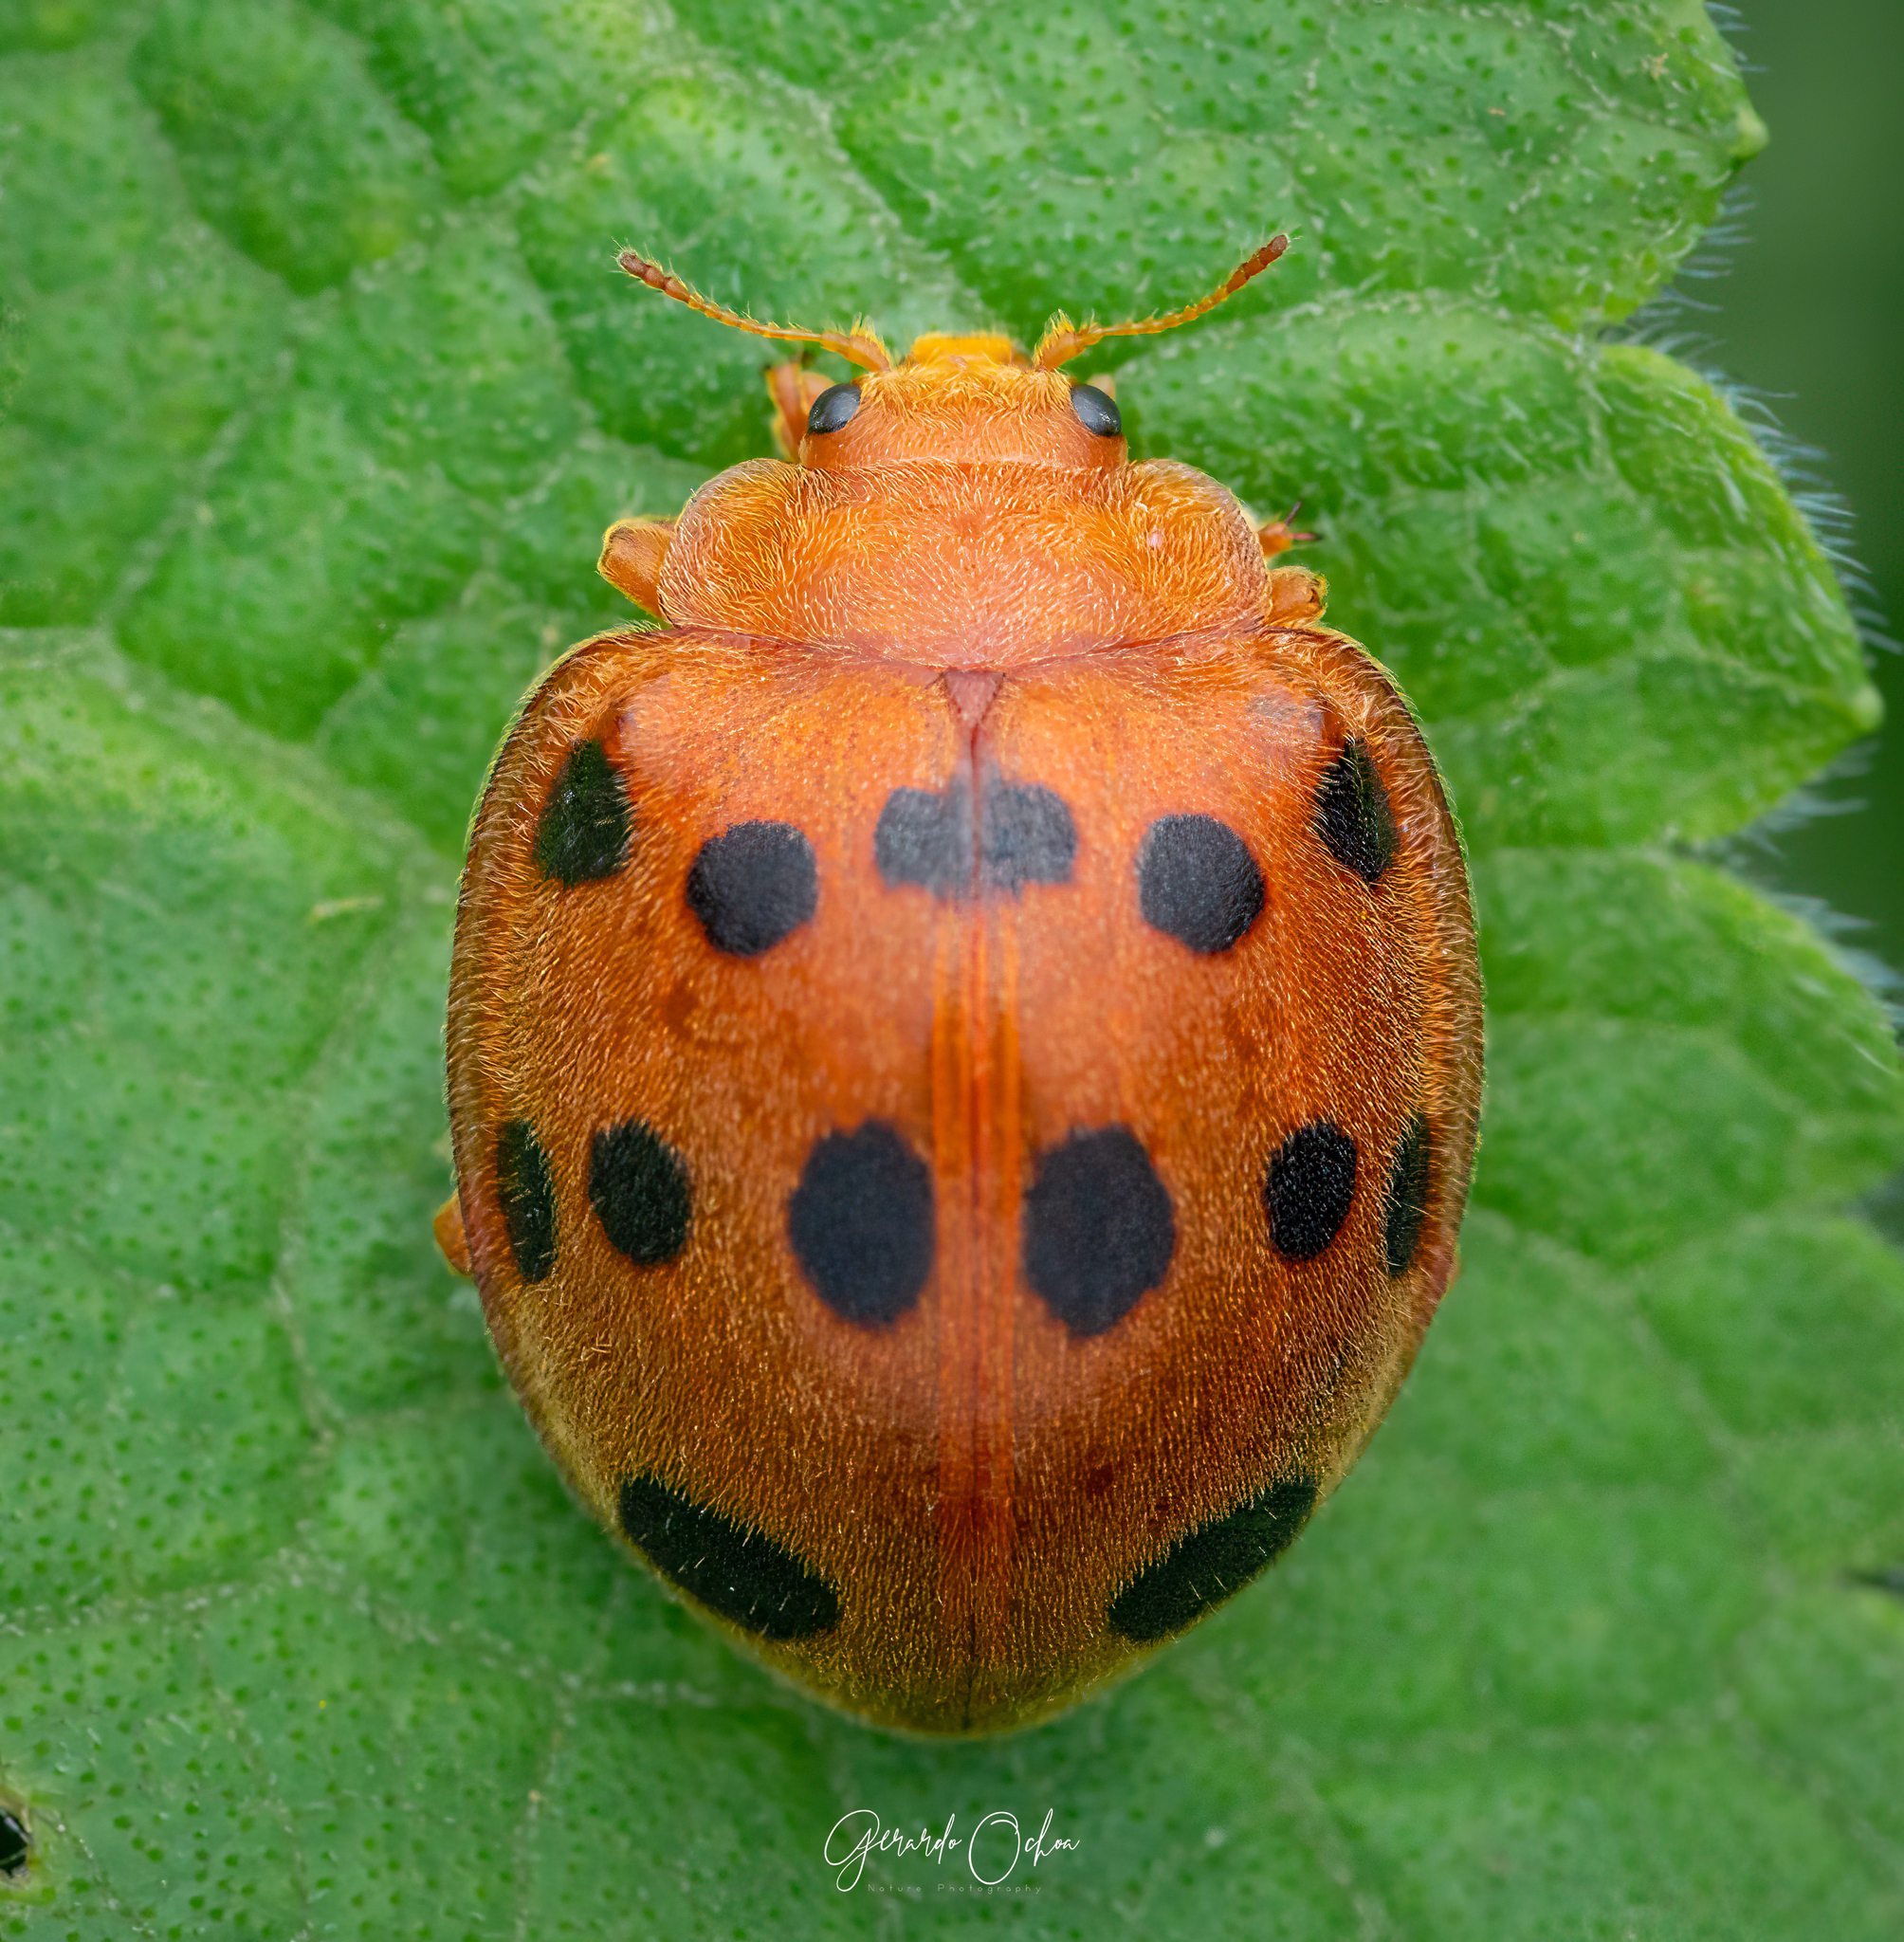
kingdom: Animalia
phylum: Arthropoda
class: Insecta
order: Coleoptera
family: Coccinellidae
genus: Epilachna
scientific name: Epilachna tredecimnotata
